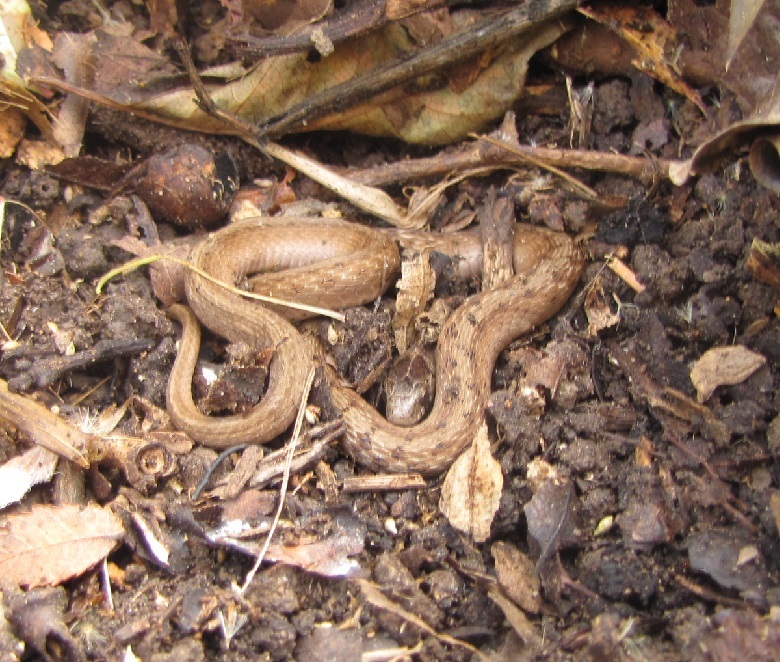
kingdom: Animalia
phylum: Chordata
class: Squamata
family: Colubridae
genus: Storeria
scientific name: Storeria dekayi
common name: (dekay’s) brown snake
